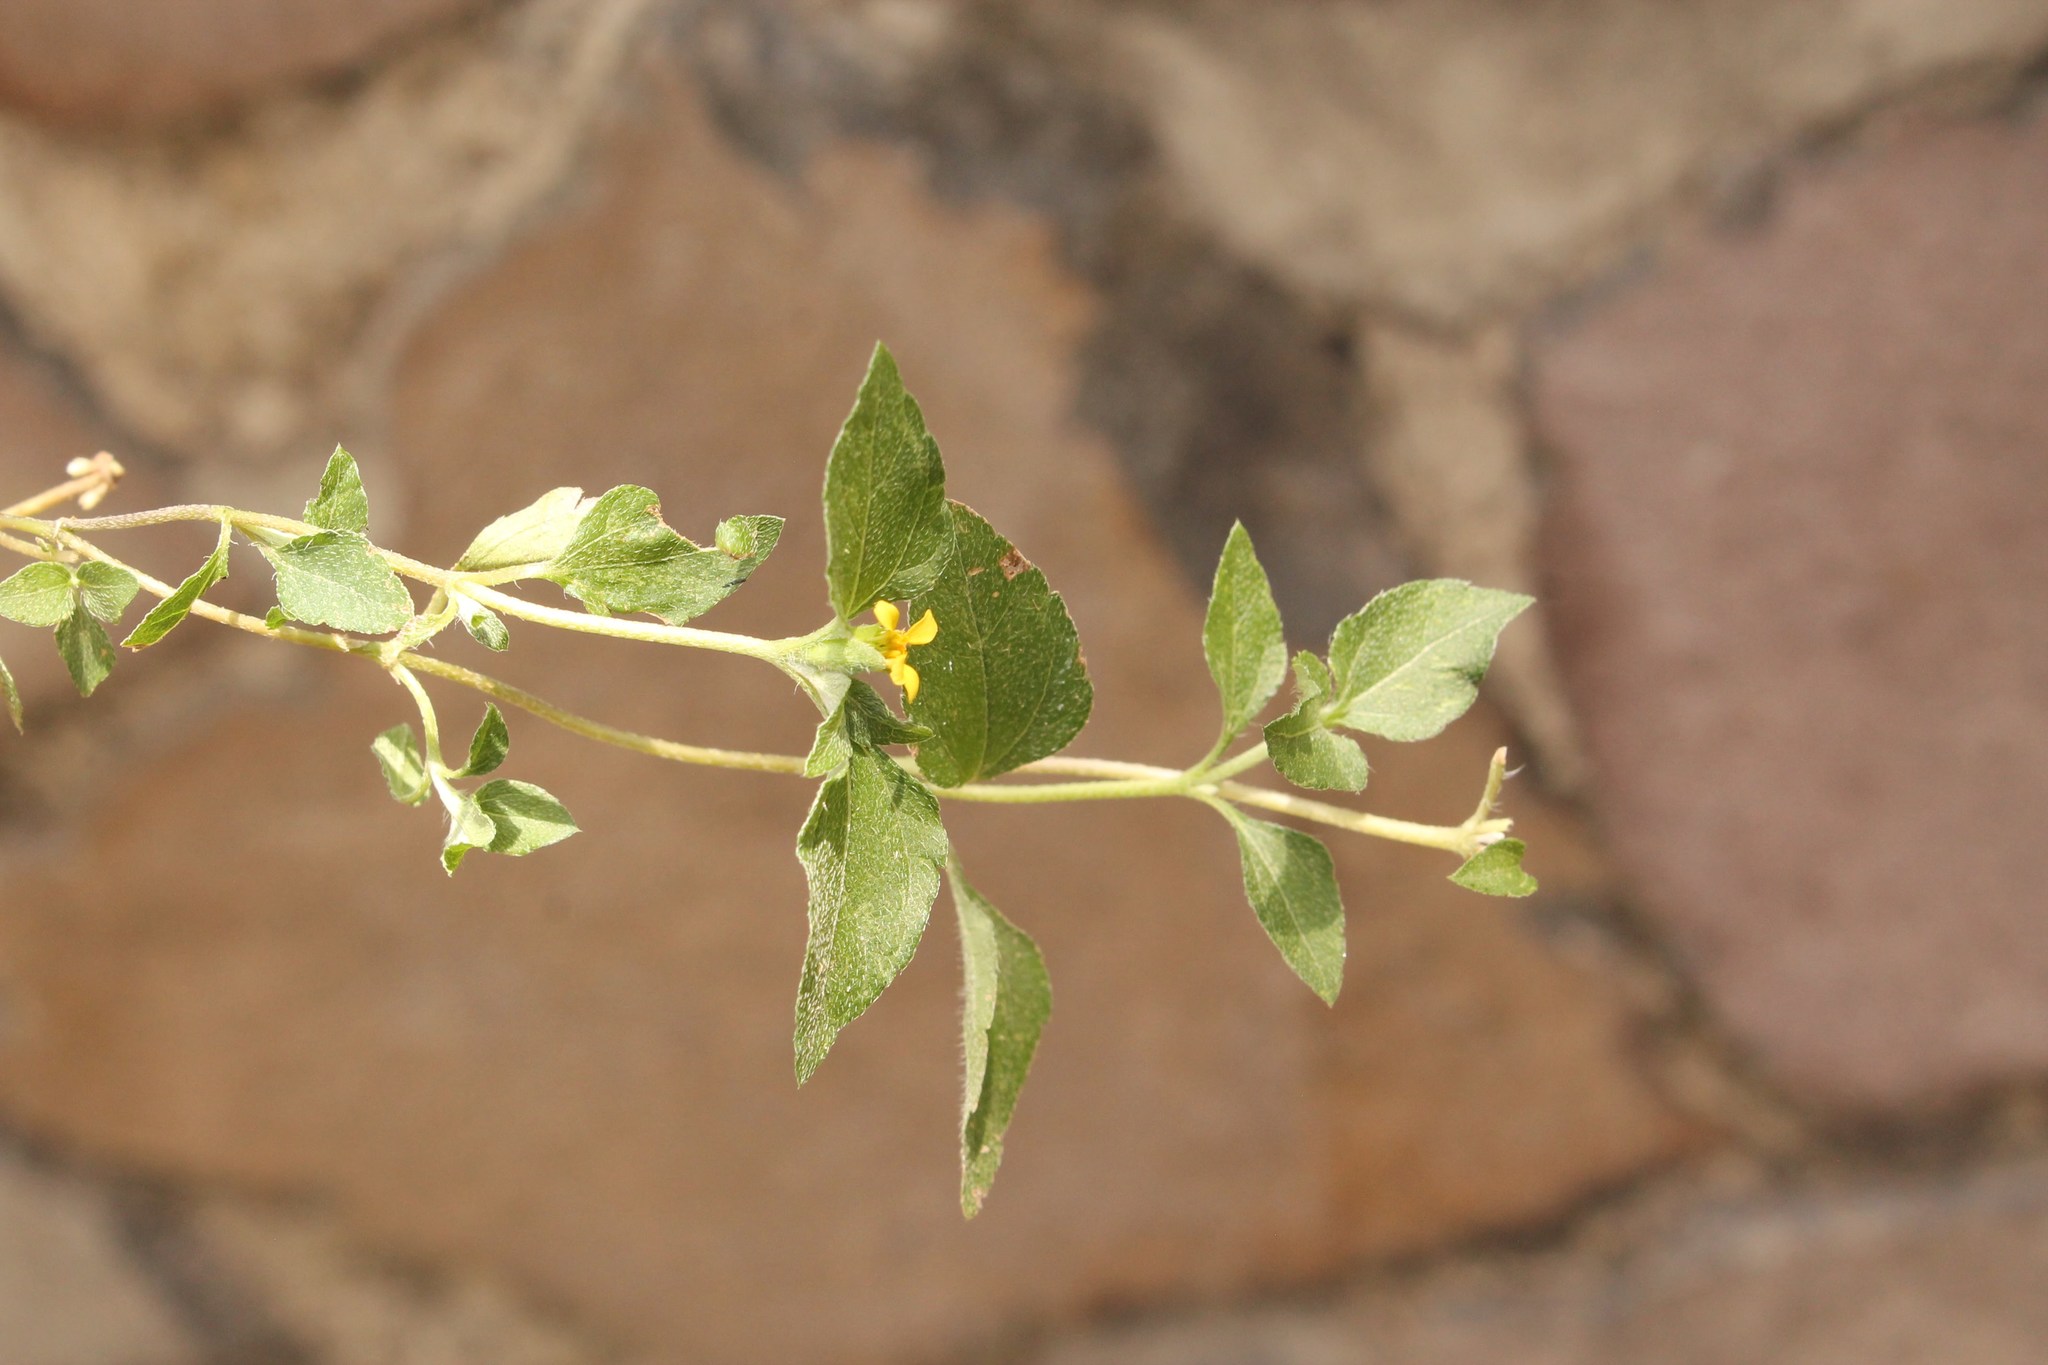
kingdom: Plantae
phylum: Tracheophyta
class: Magnoliopsida
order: Asterales
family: Asteraceae
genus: Calyptocarpus
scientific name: Calyptocarpus vialis
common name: Straggler daisy
